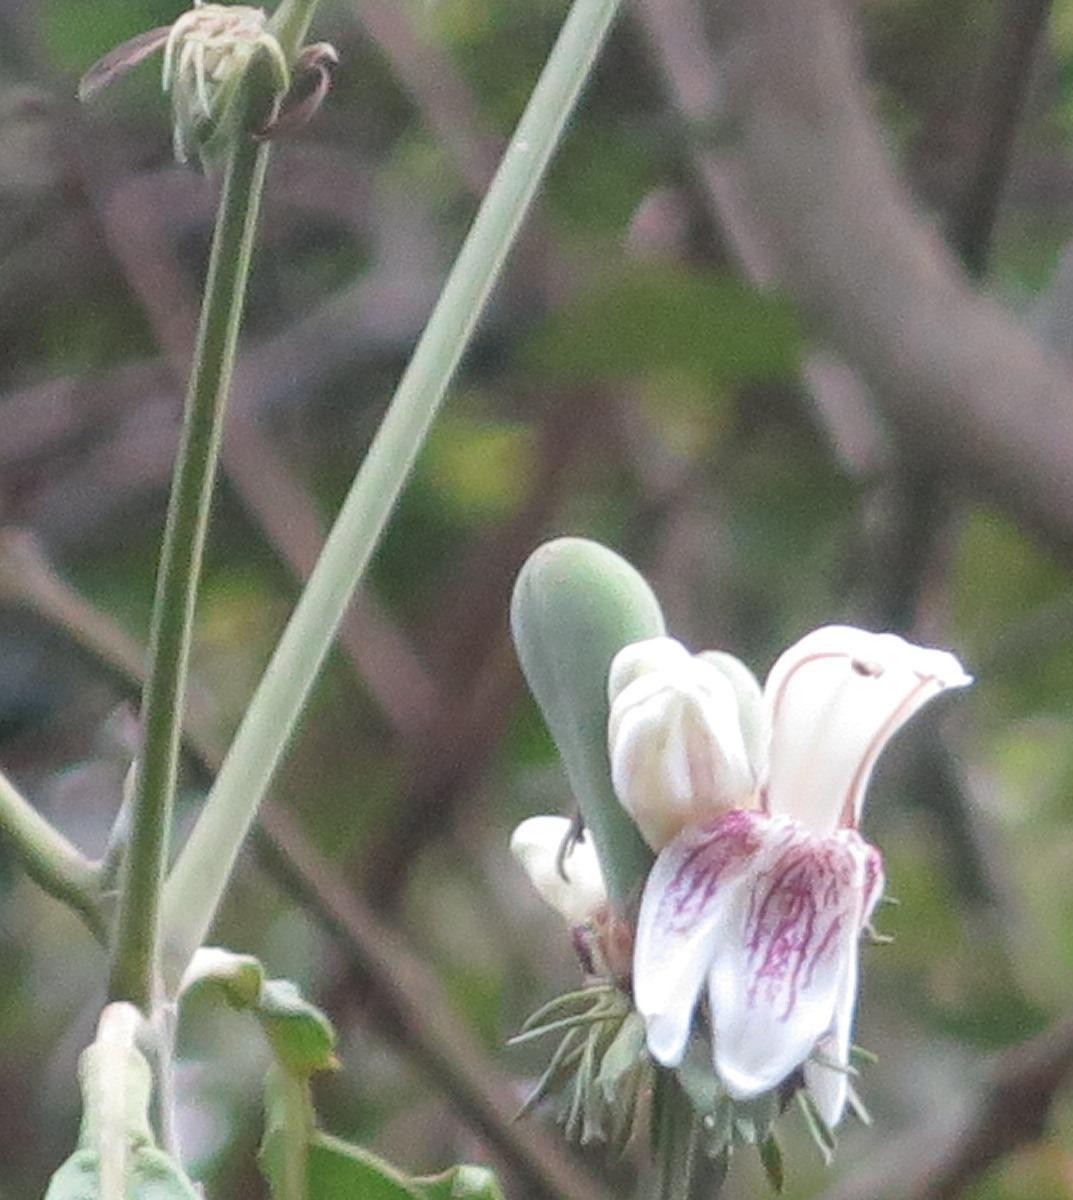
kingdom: Plantae
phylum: Tracheophyta
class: Magnoliopsida
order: Lamiales
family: Acanthaceae
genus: Justicia
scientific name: Justicia adhatodoides
